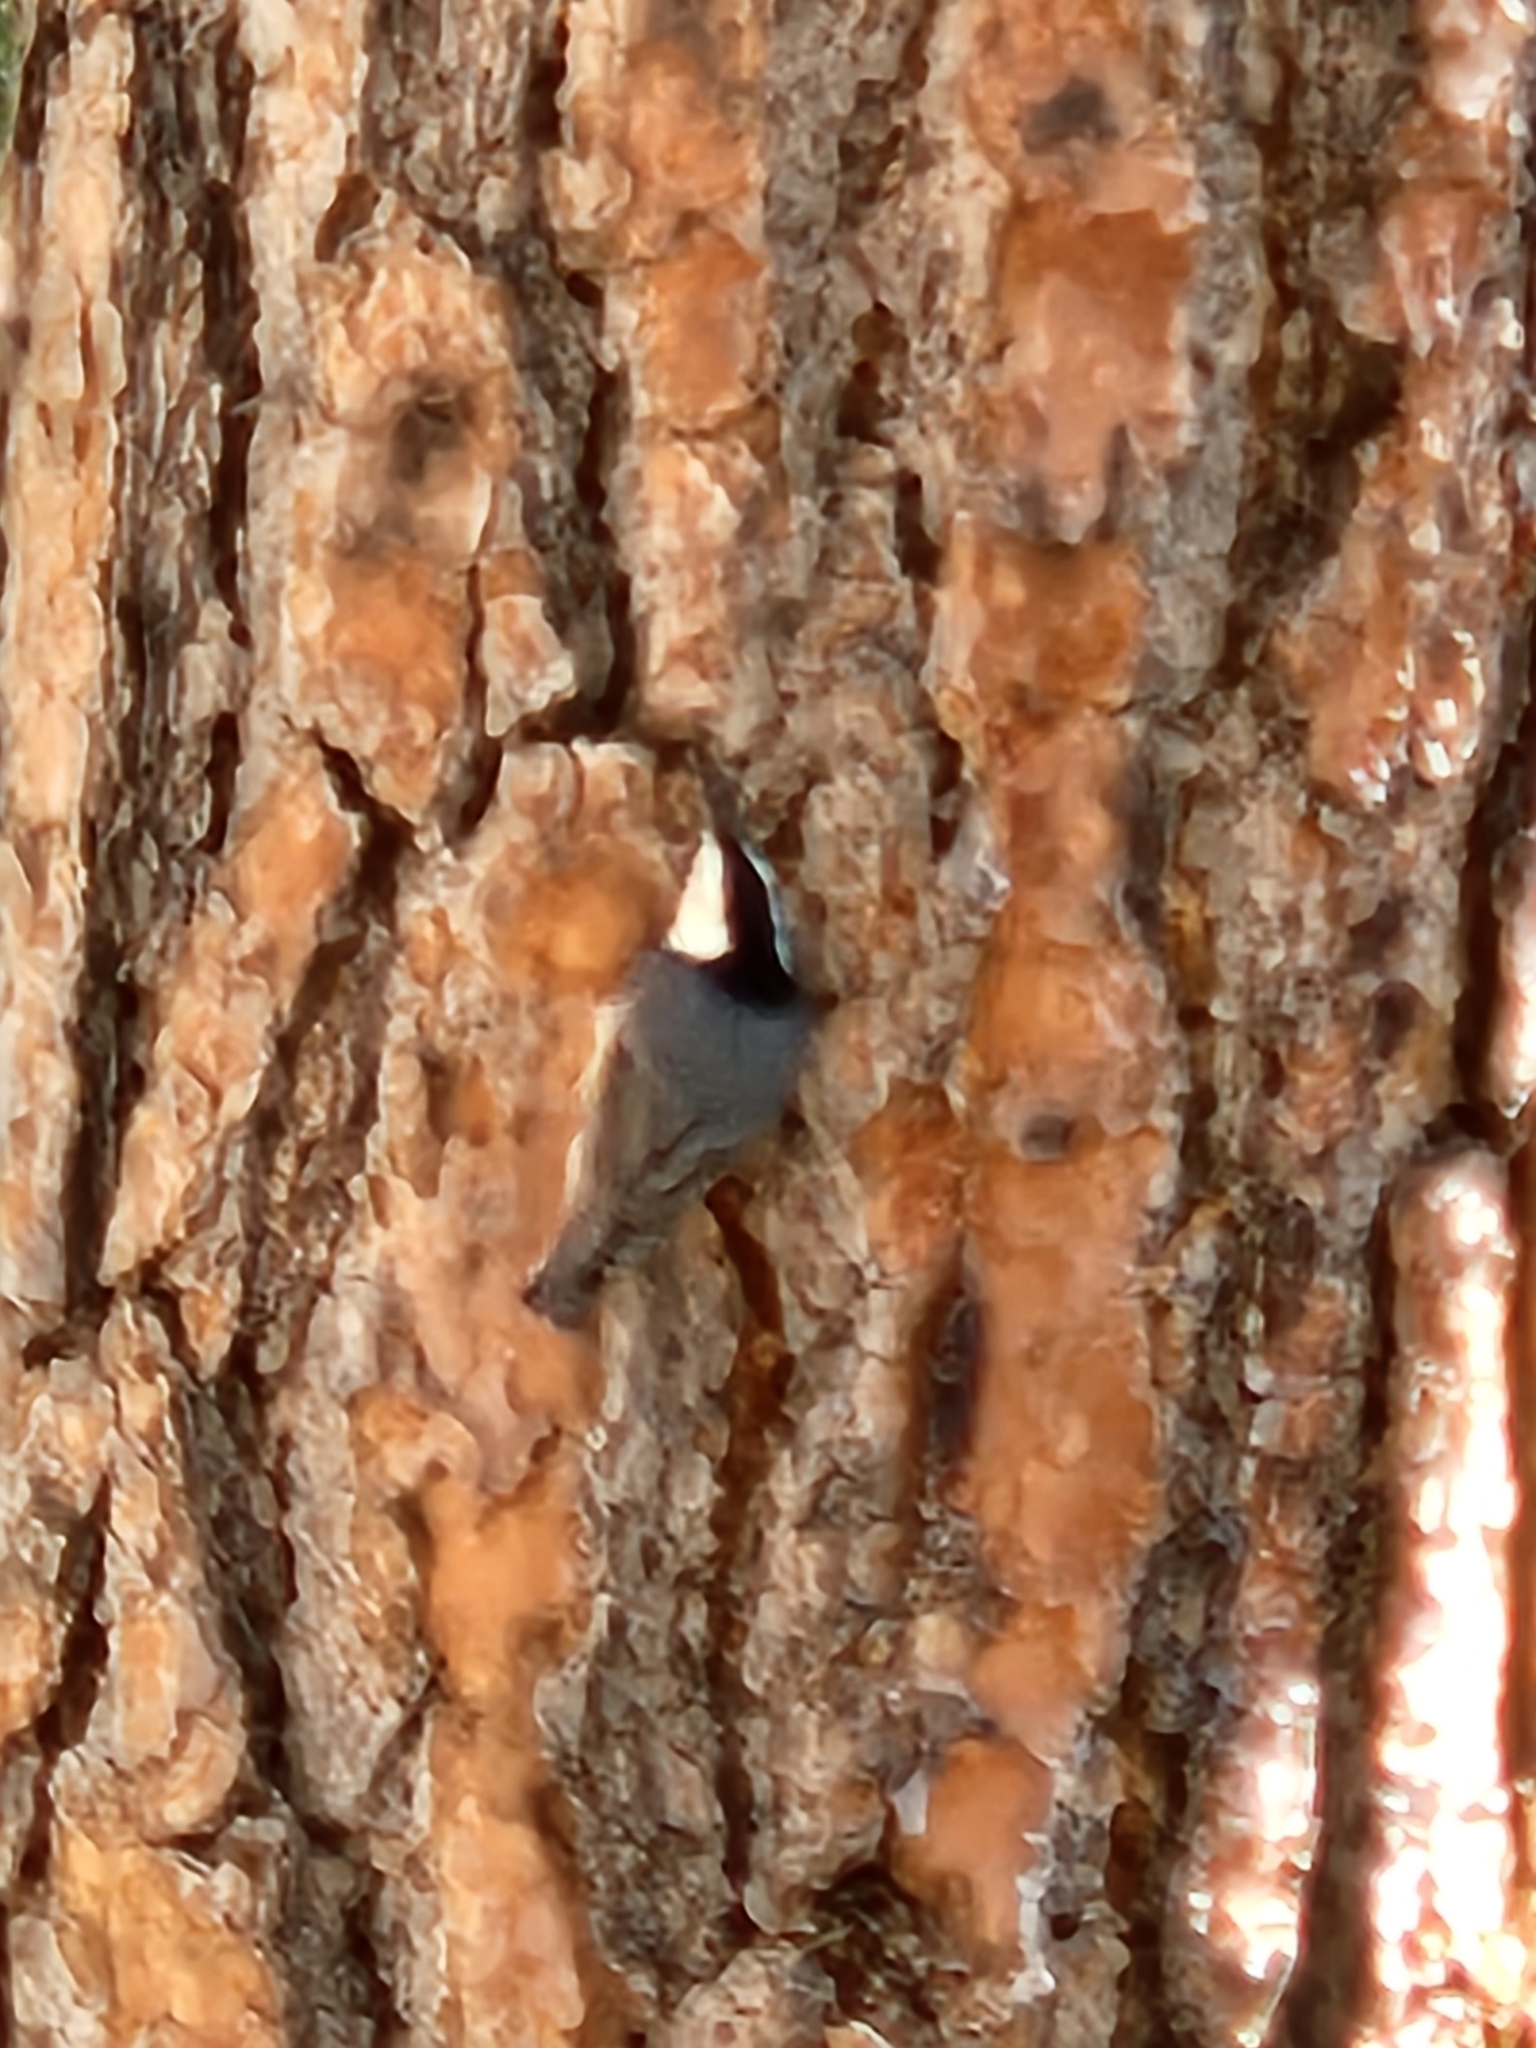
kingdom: Animalia
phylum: Chordata
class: Aves
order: Passeriformes
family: Sittidae
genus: Sitta
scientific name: Sitta carolinensis
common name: White-breasted nuthatch
